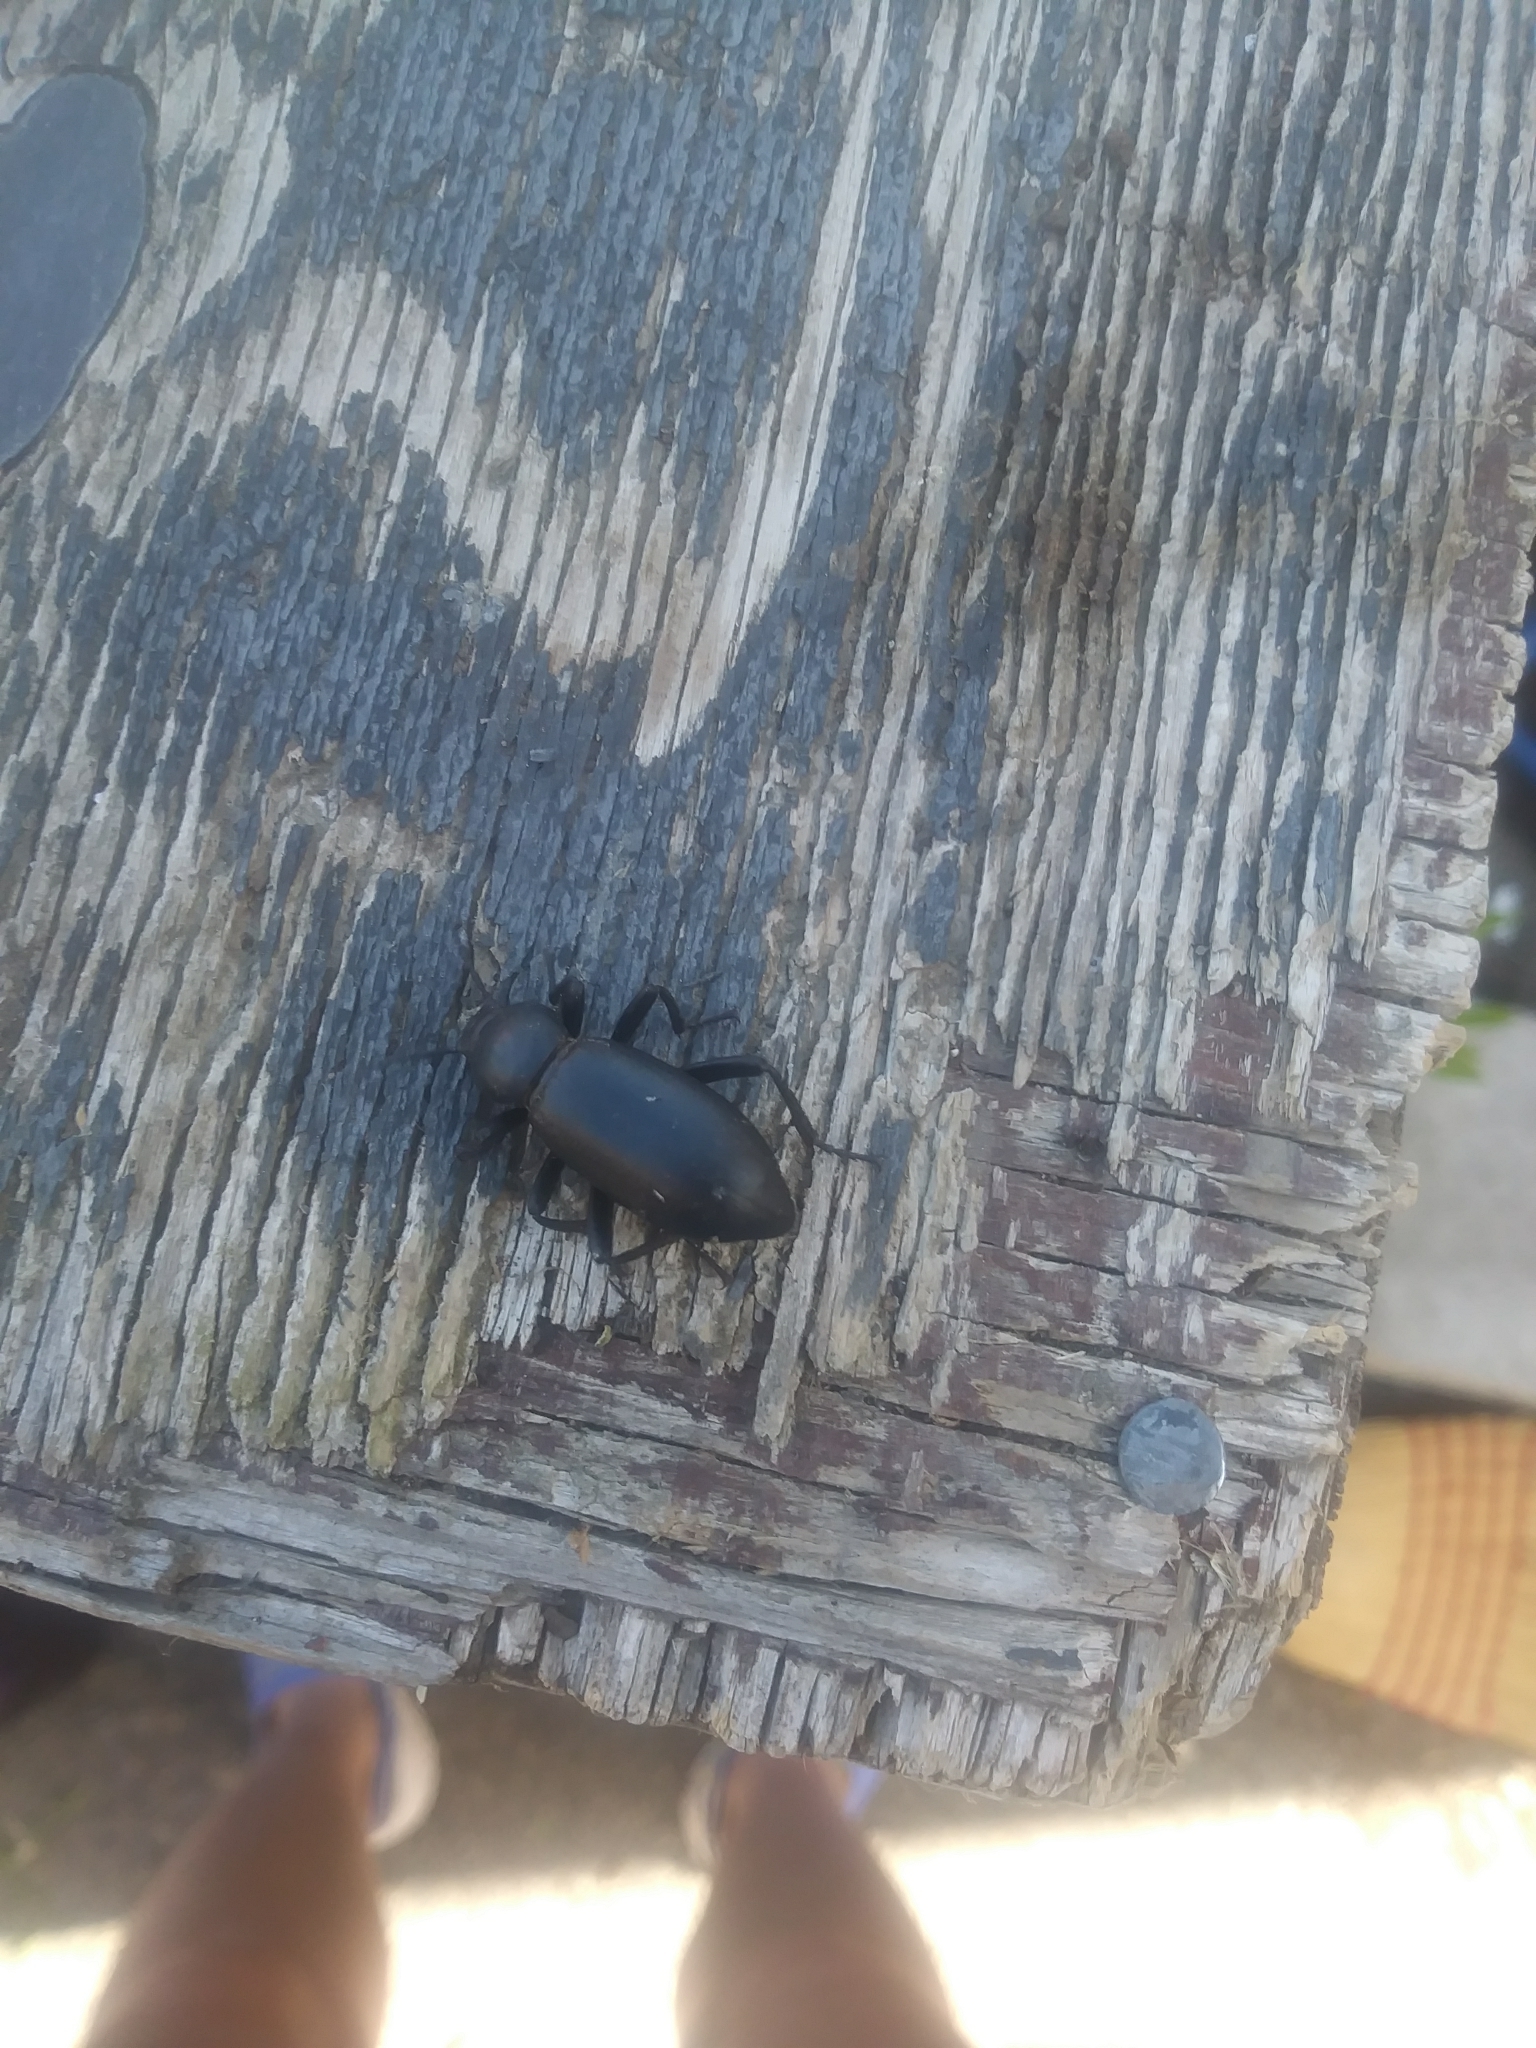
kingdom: Animalia
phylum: Arthropoda
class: Insecta
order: Coleoptera
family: Tenebrionidae
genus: Eleodes
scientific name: Eleodes nigrina
